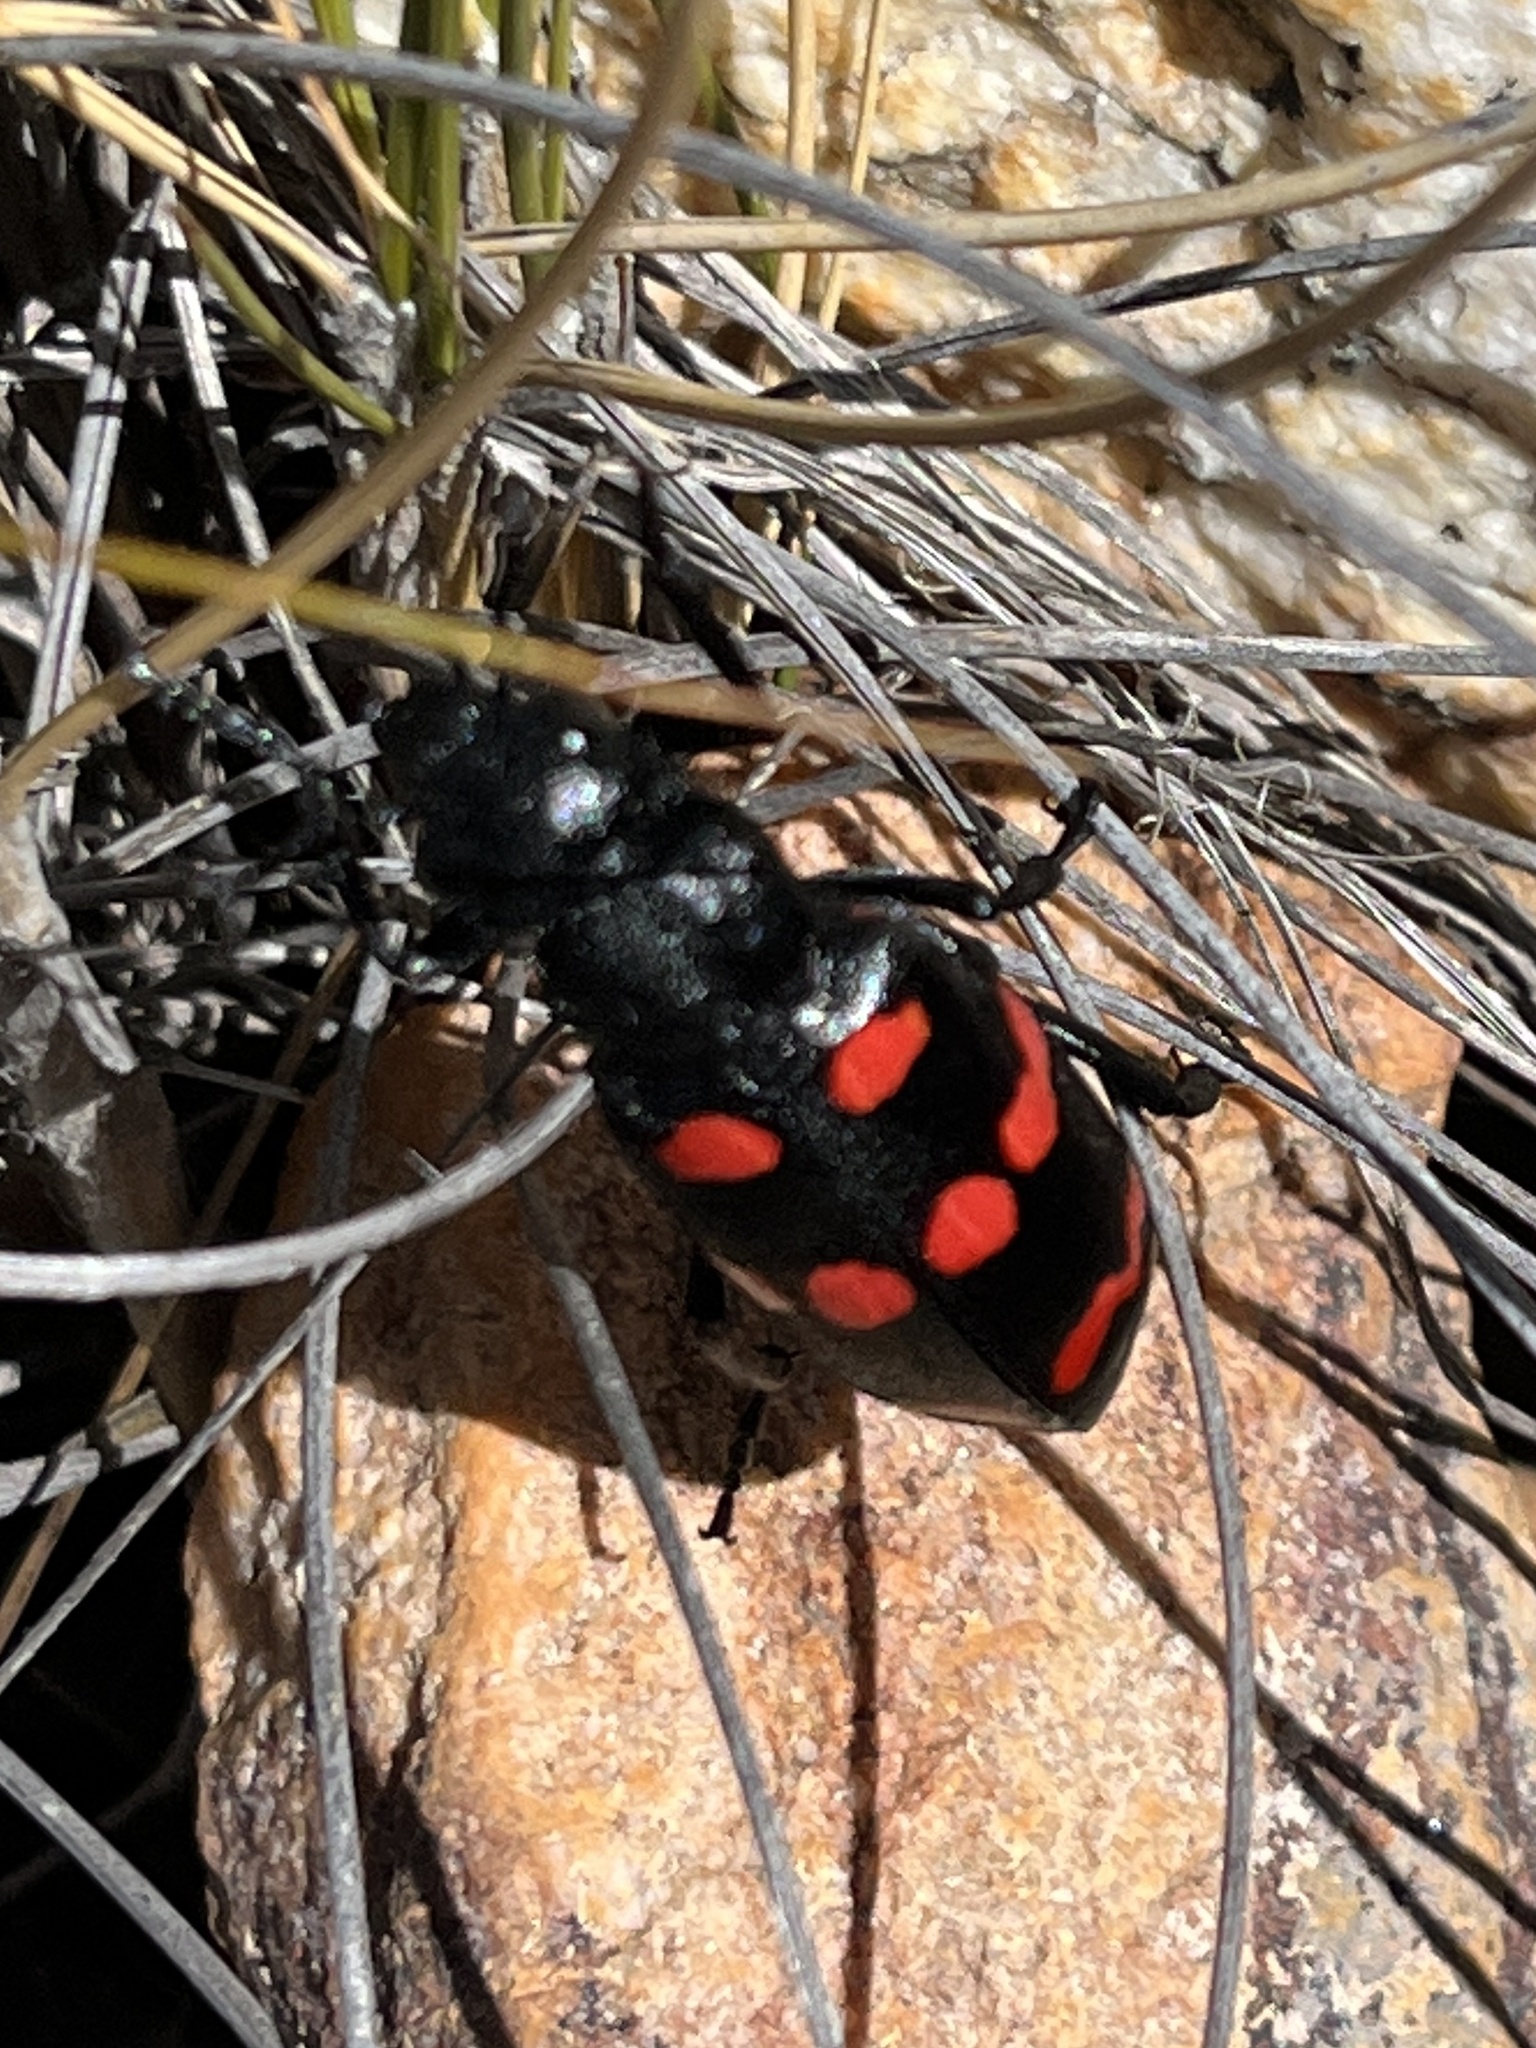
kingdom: Animalia
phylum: Arthropoda
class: Insecta
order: Coleoptera
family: Meloidae
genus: Hycleus
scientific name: Hycleus
